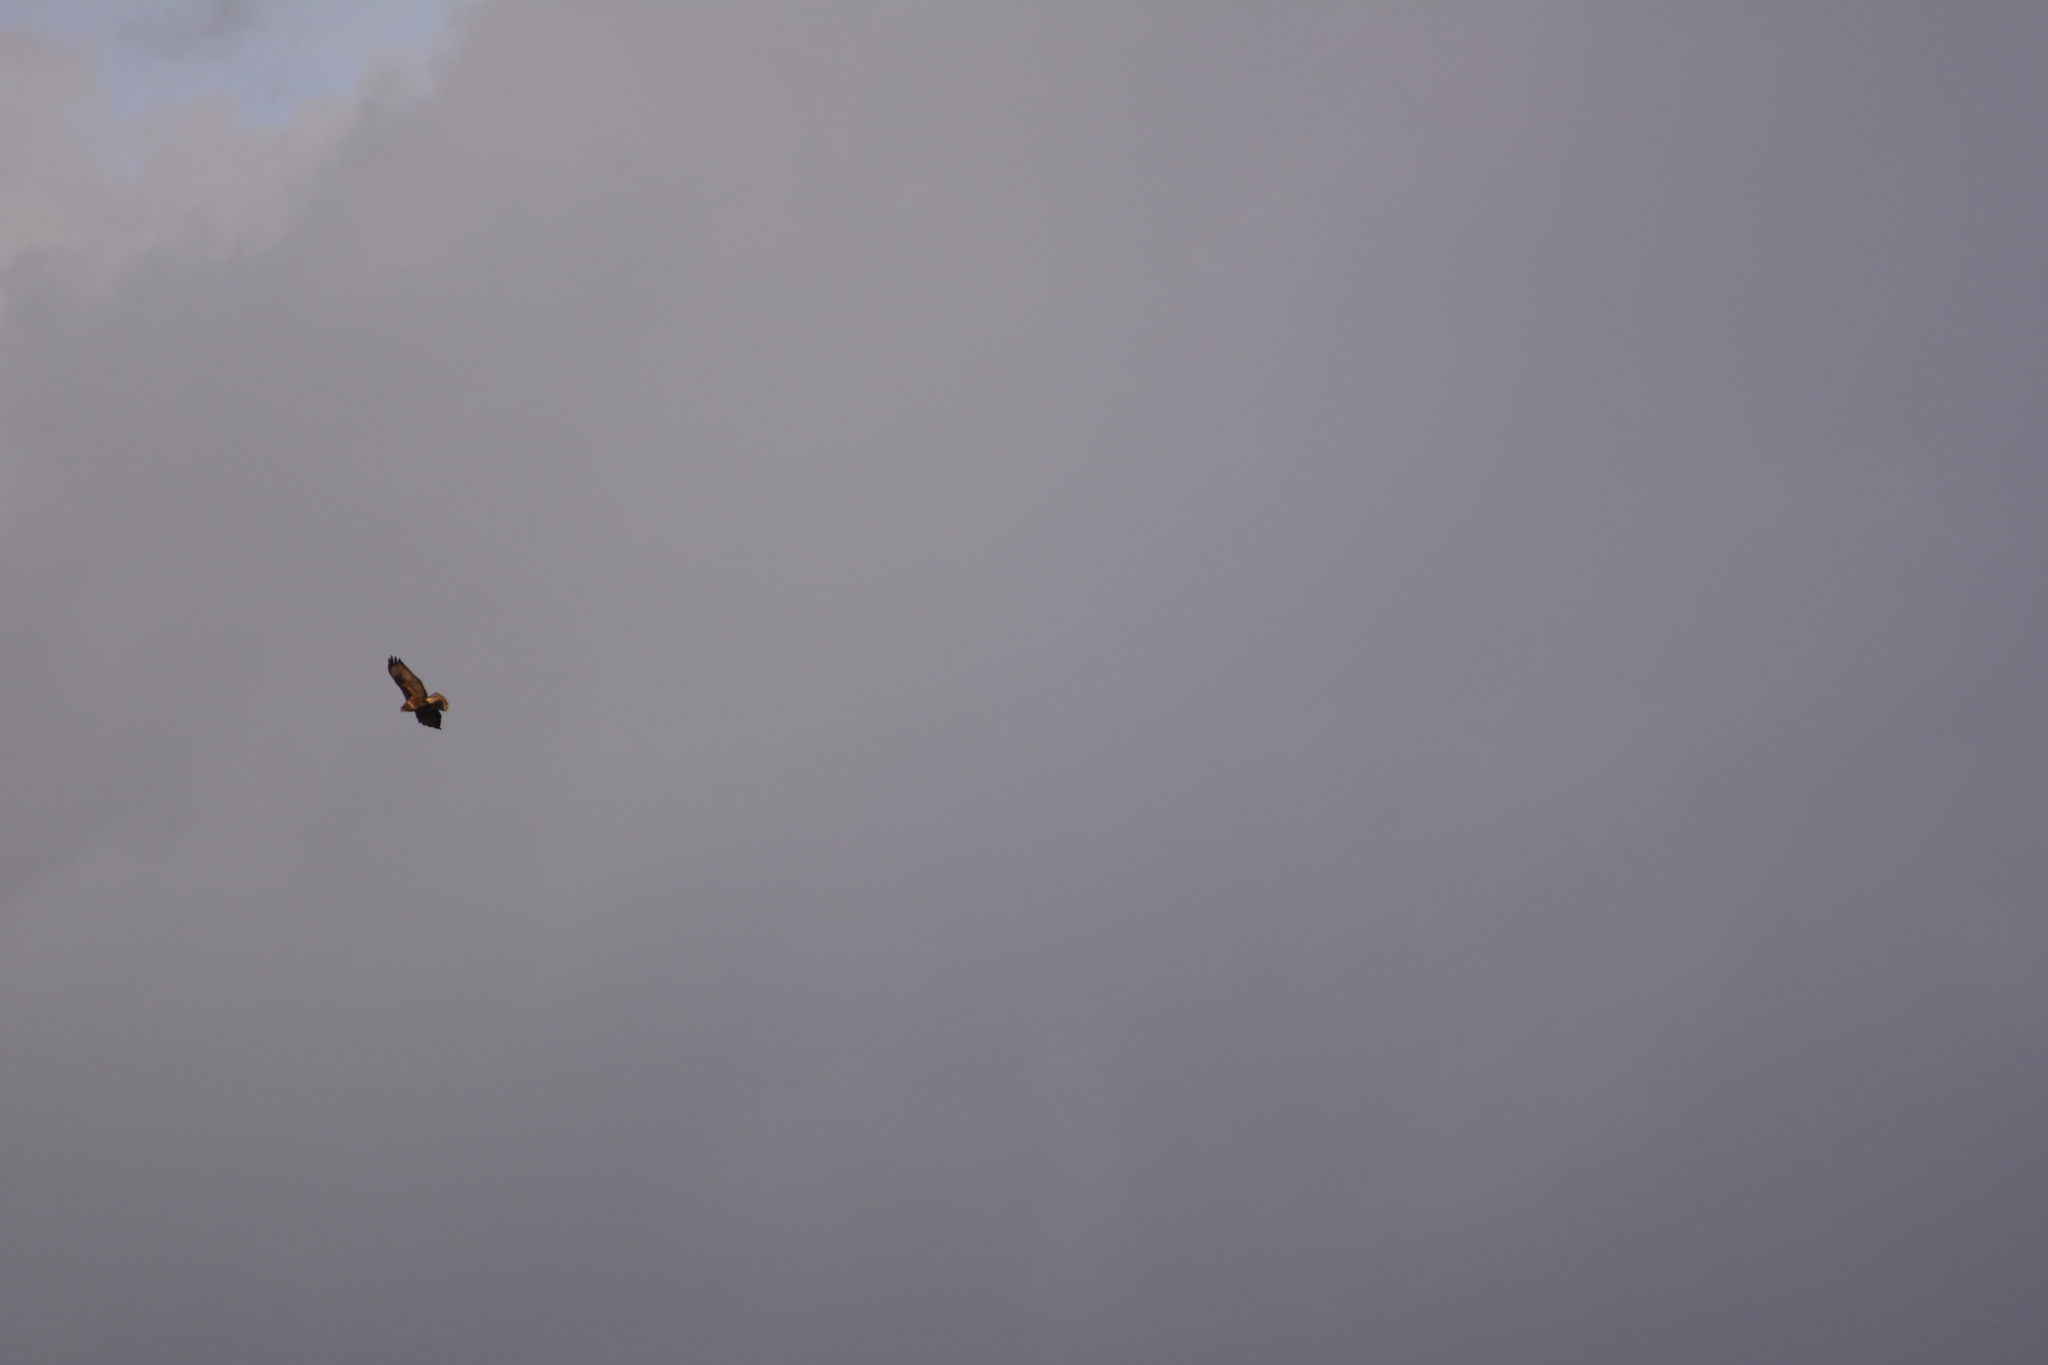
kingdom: Animalia
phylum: Chordata
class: Aves
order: Accipitriformes
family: Accipitridae
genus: Buteo
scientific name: Buteo buteo
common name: Common buzzard
